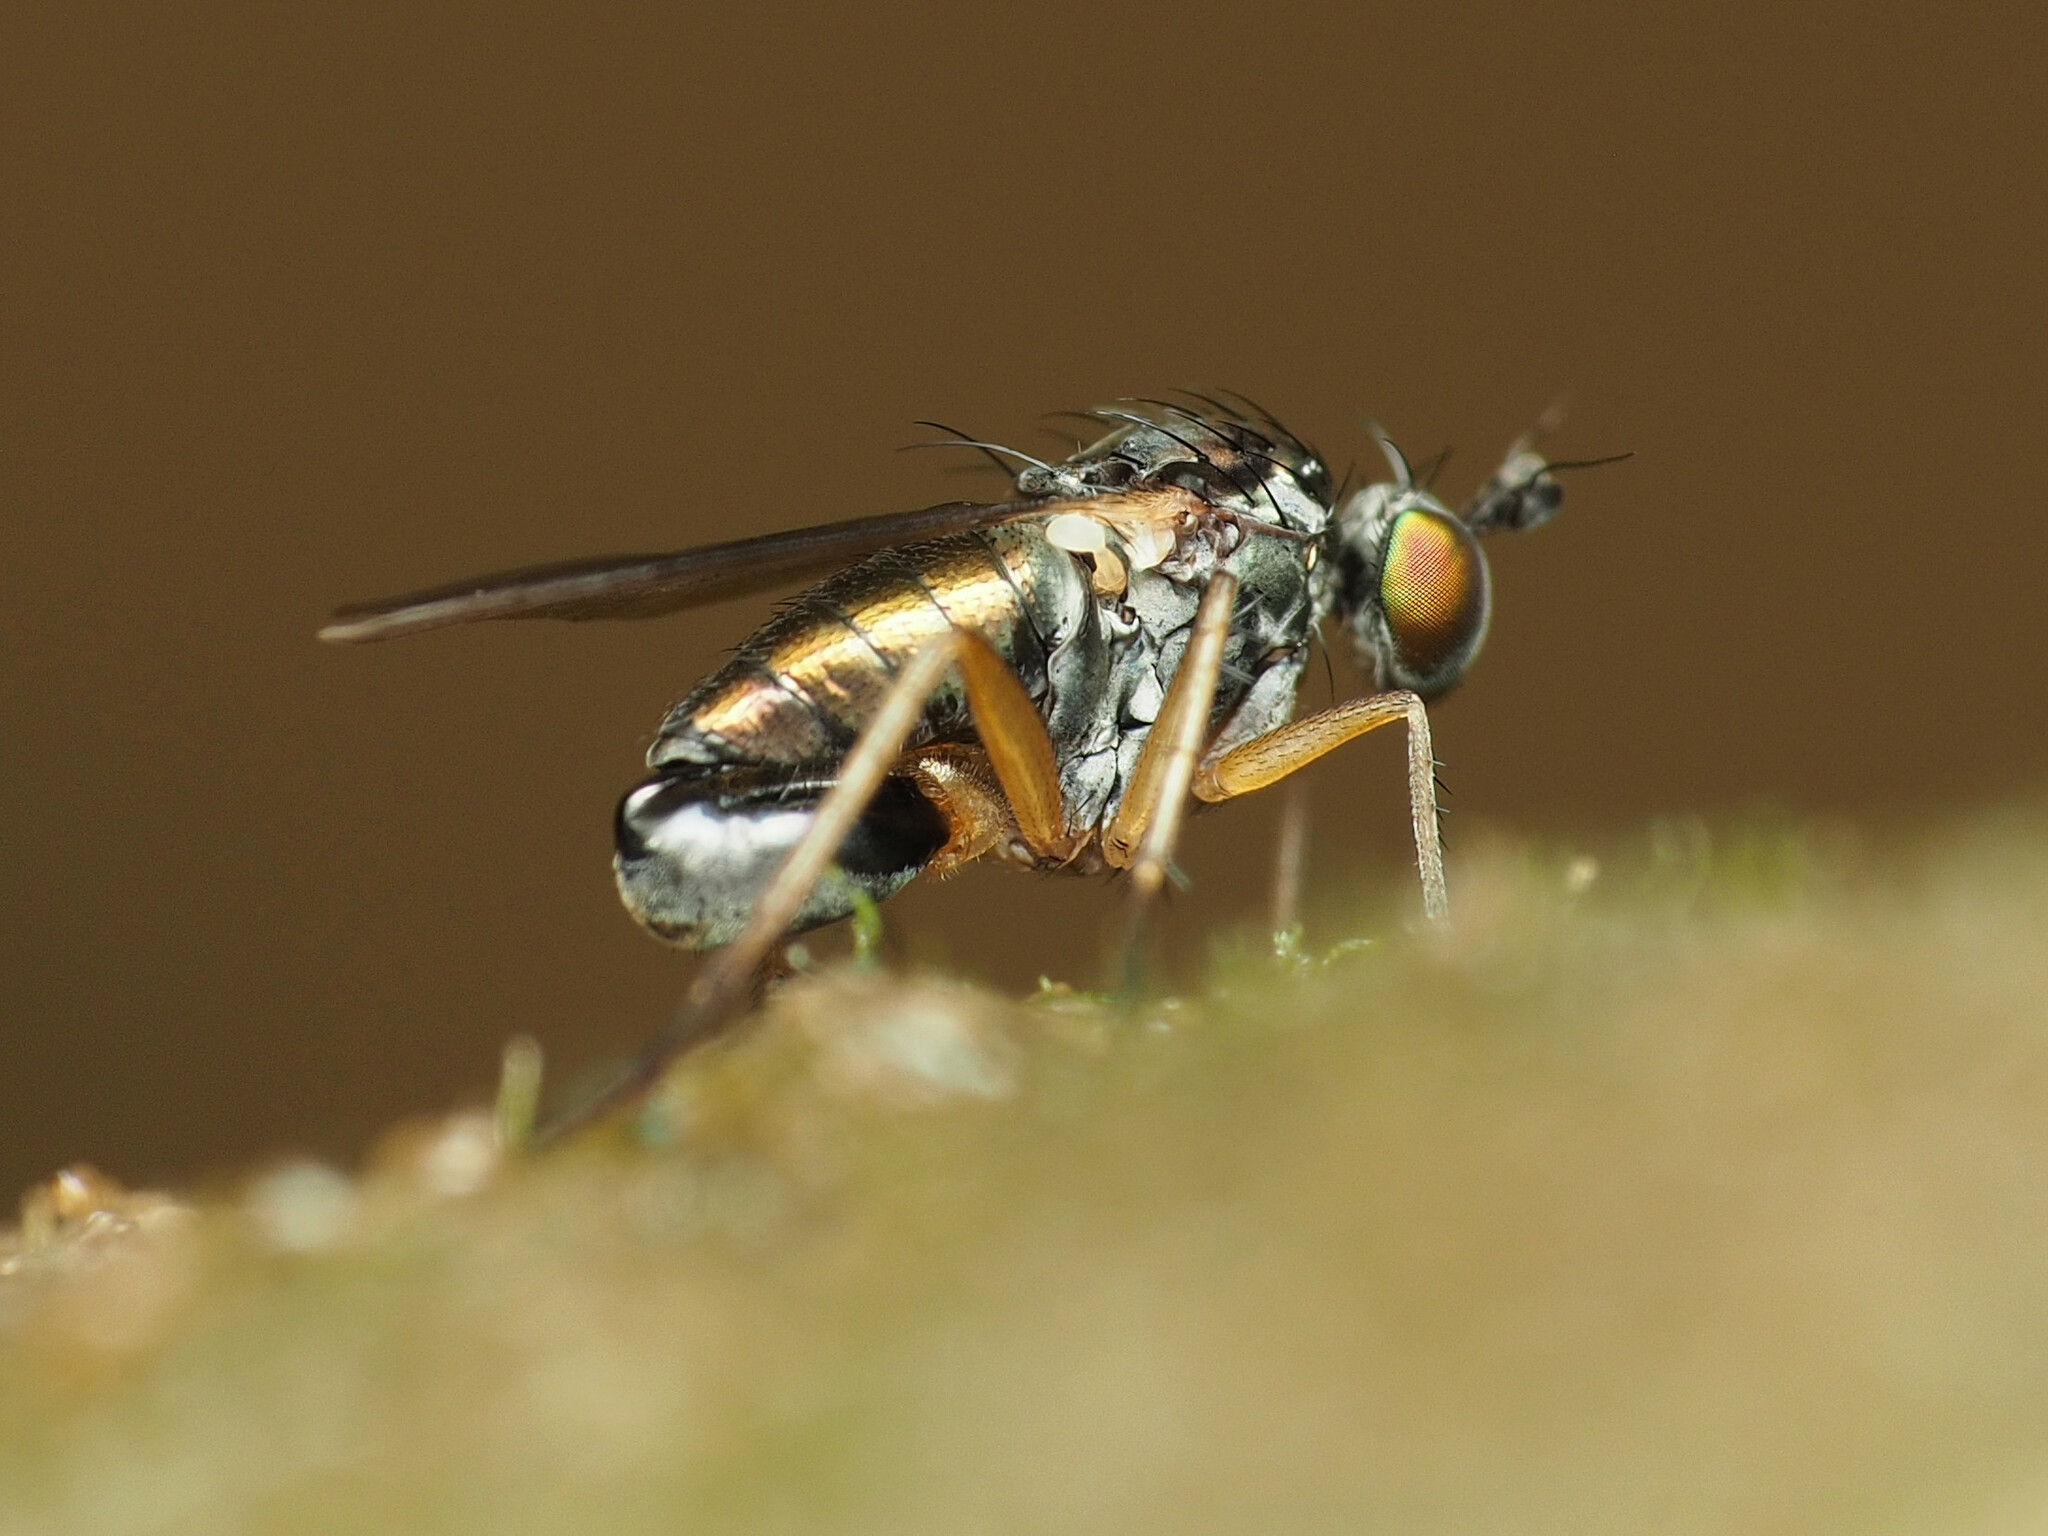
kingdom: Animalia
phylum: Arthropoda
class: Insecta
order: Diptera
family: Dolichopodidae
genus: Gymnopternus
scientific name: Gymnopternus meniscus
